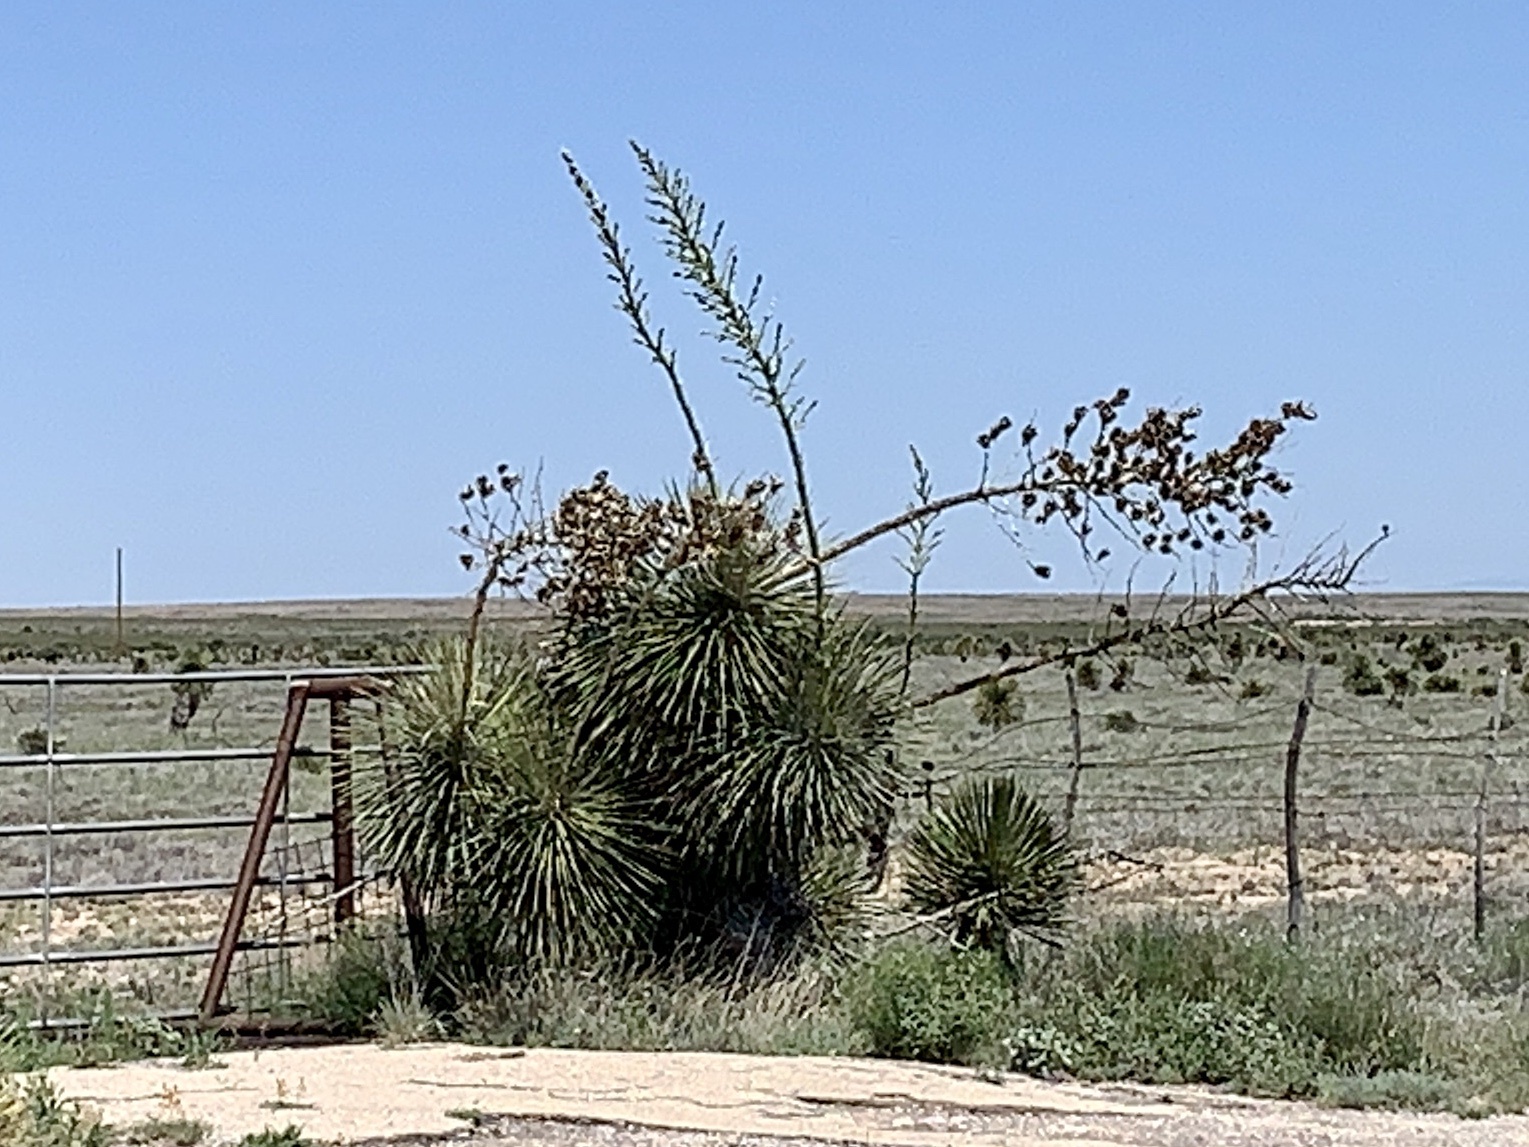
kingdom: Plantae
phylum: Tracheophyta
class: Liliopsida
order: Asparagales
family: Asparagaceae
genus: Yucca
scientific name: Yucca elata
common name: Palmella
